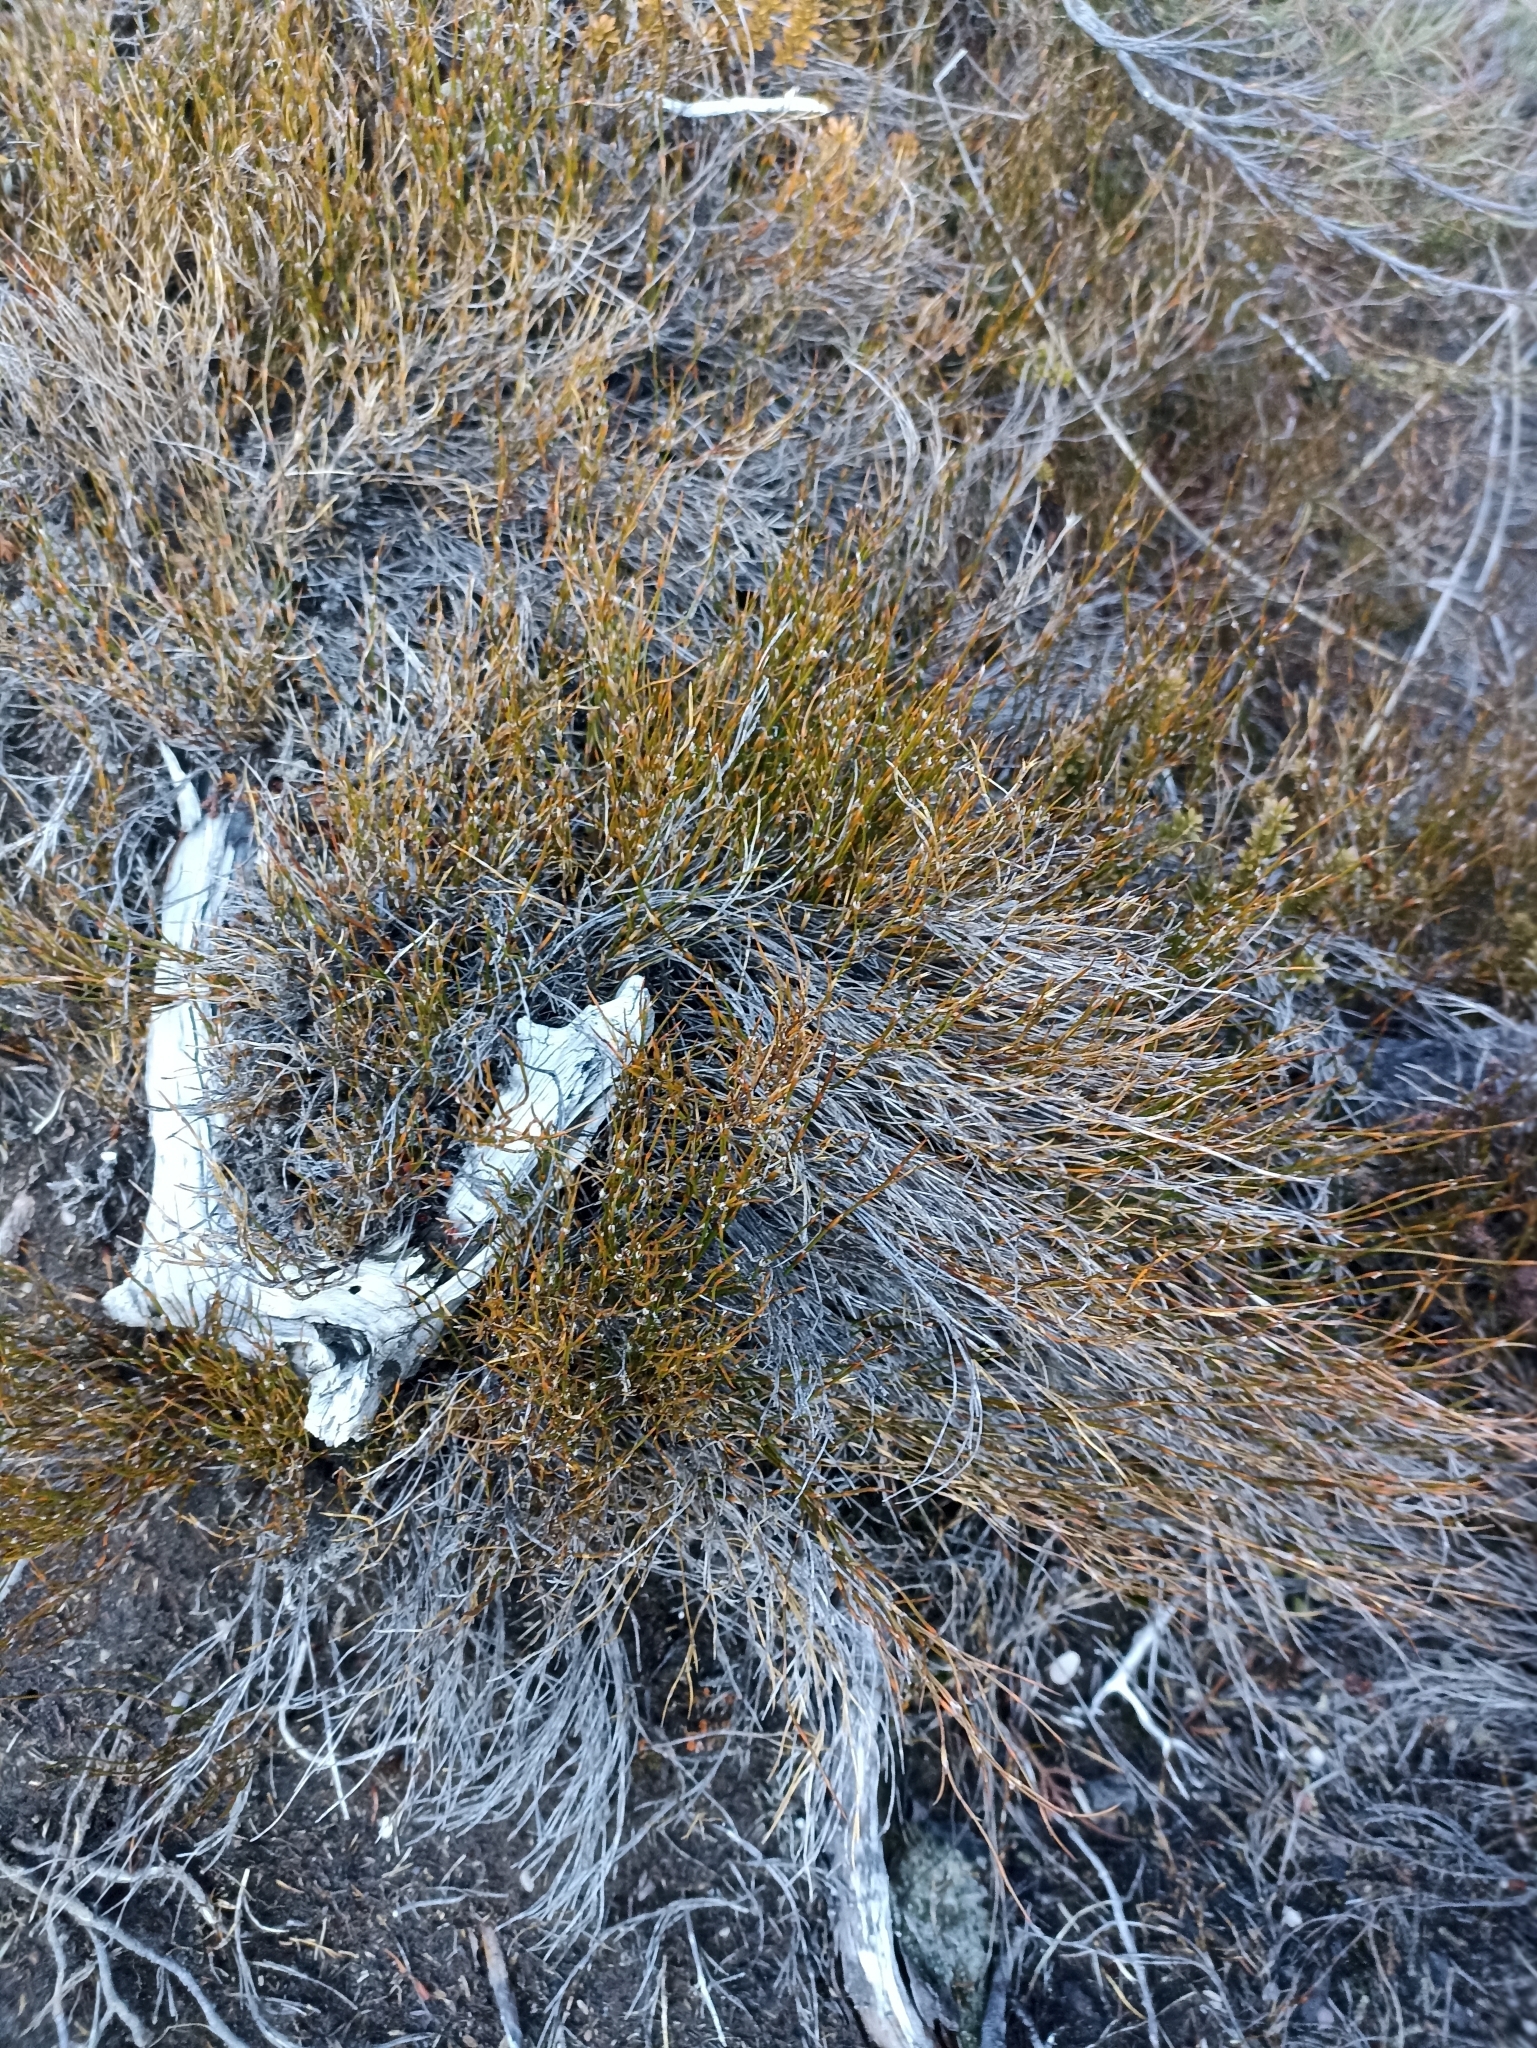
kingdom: Plantae
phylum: Tracheophyta
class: Liliopsida
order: Poales
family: Restionaceae
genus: Empodisma
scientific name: Empodisma minus
